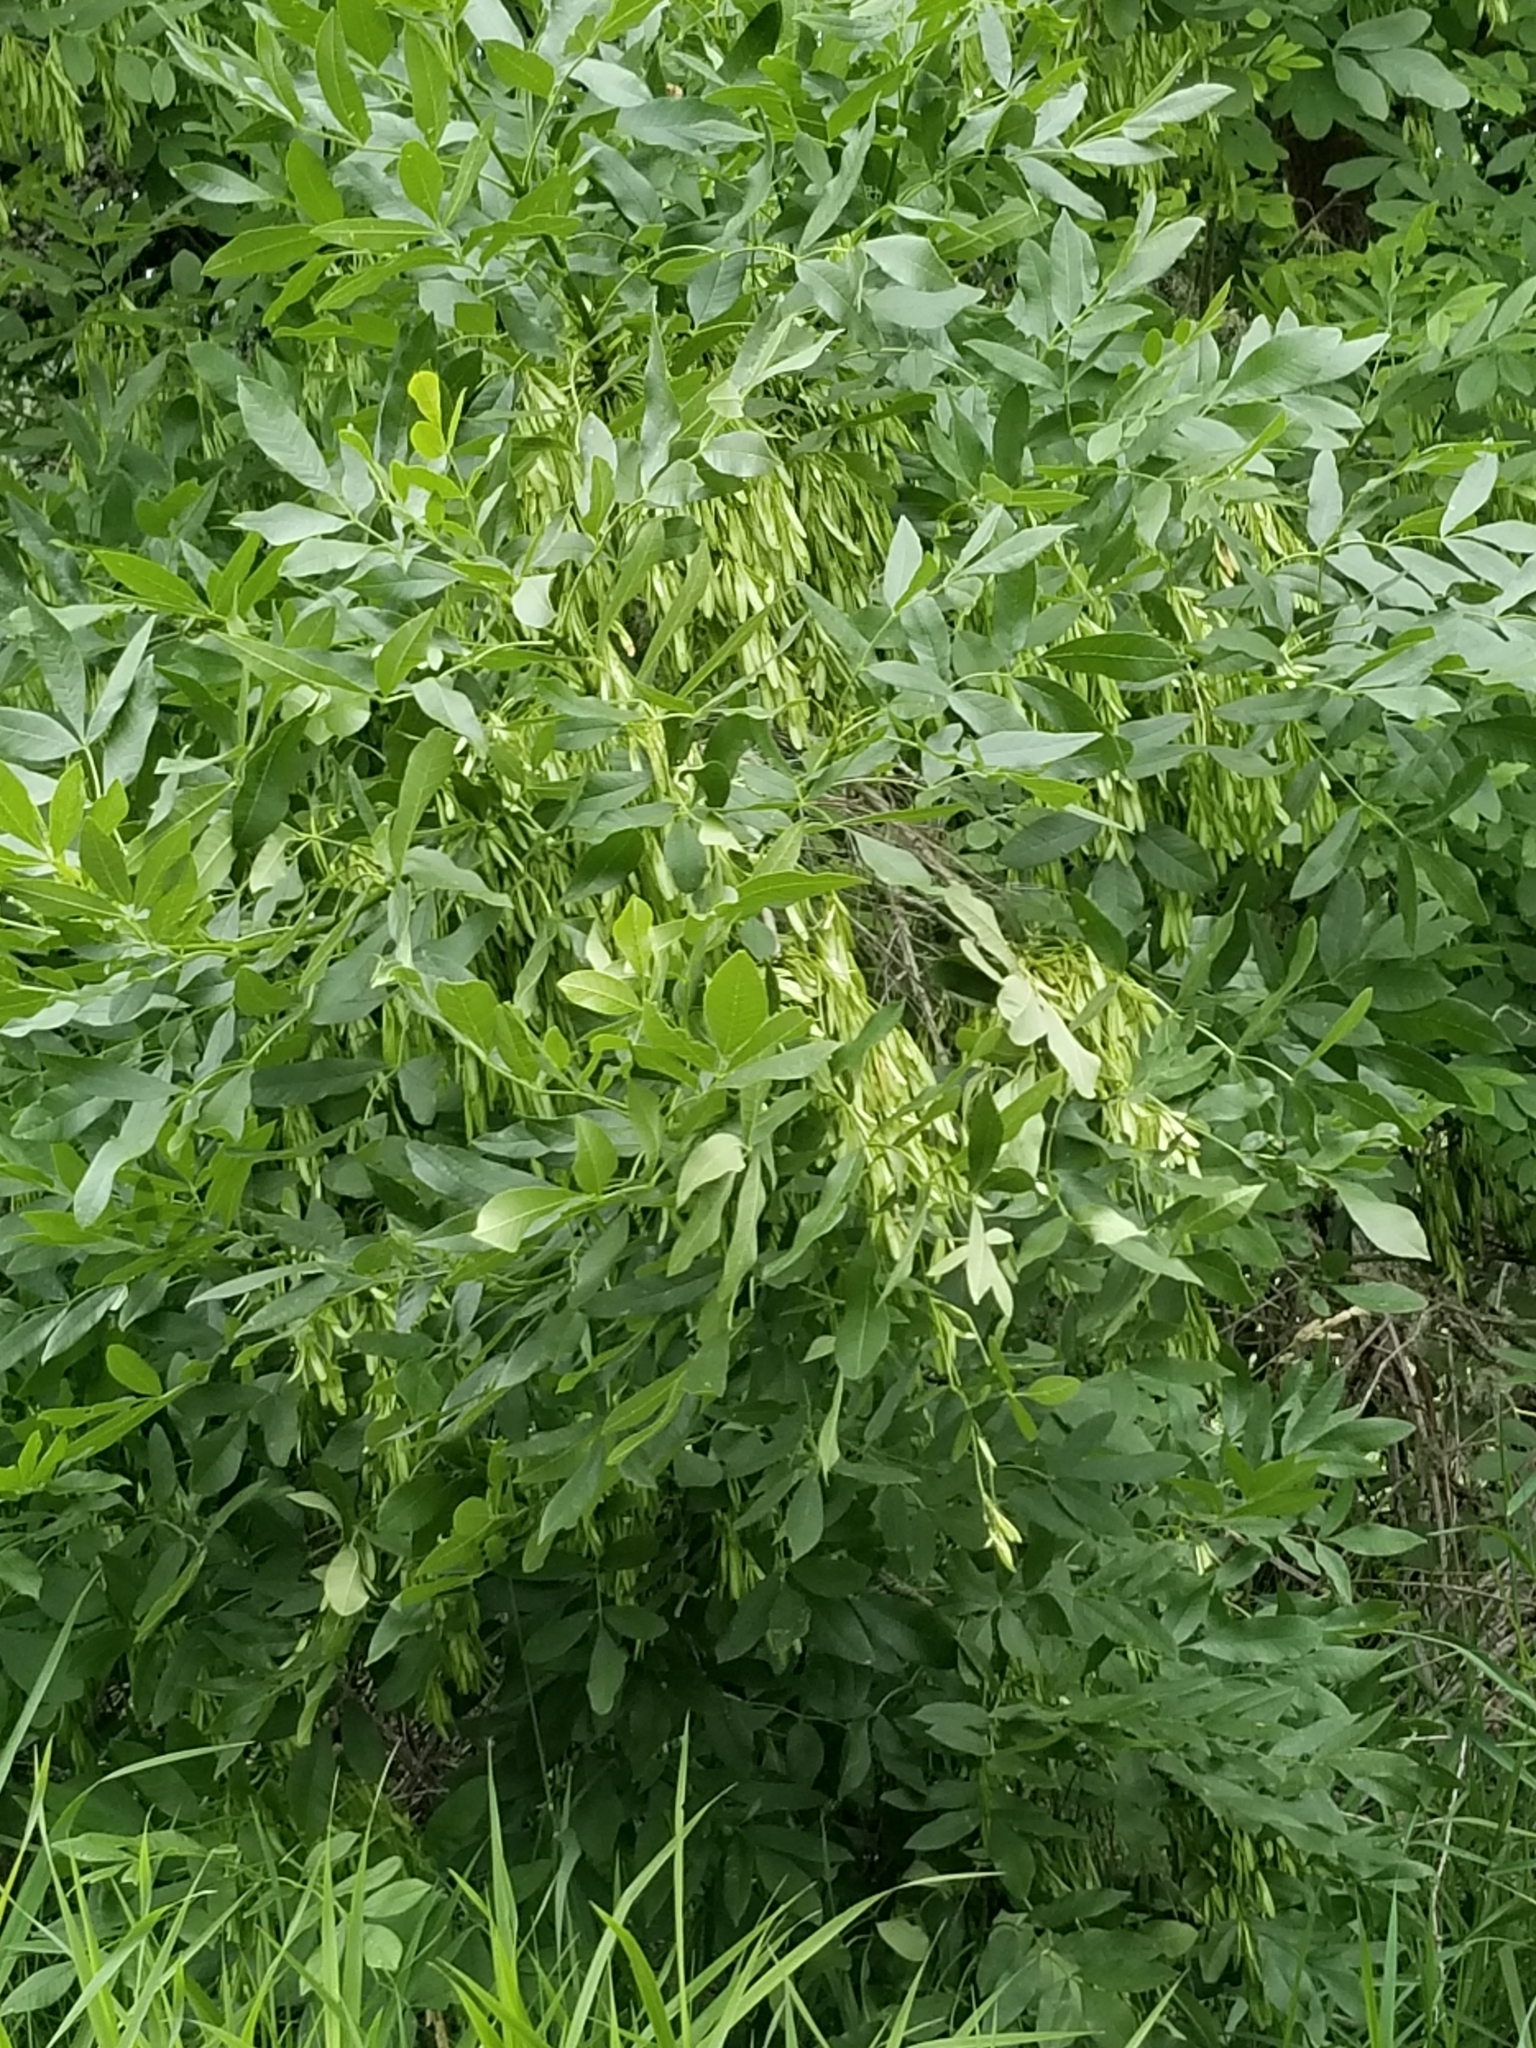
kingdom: Plantae
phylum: Tracheophyta
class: Magnoliopsida
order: Lamiales
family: Oleaceae
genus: Fraxinus
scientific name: Fraxinus latifolia
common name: Oregon ash
